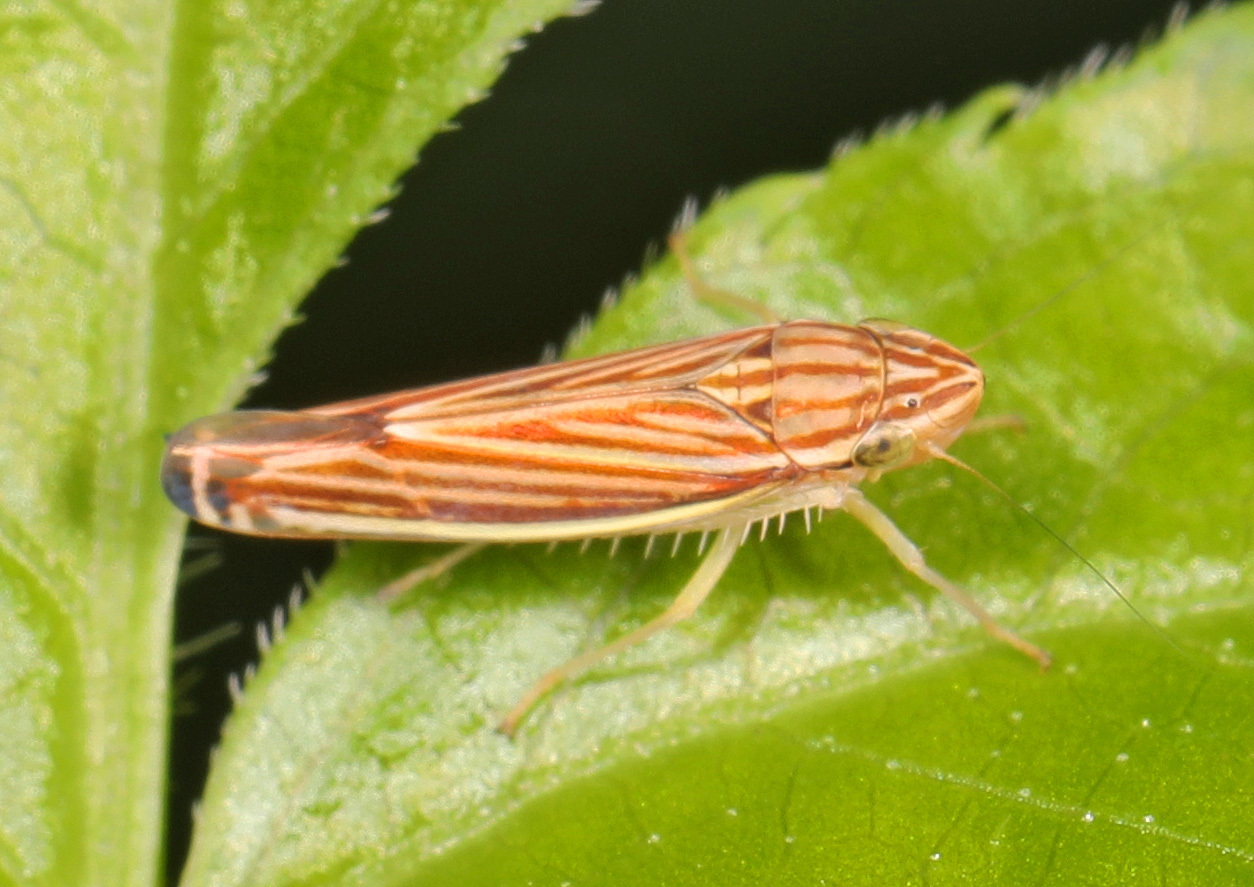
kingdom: Animalia
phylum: Arthropoda
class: Insecta
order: Hemiptera
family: Cicadellidae
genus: Sibovia
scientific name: Sibovia occatoria
